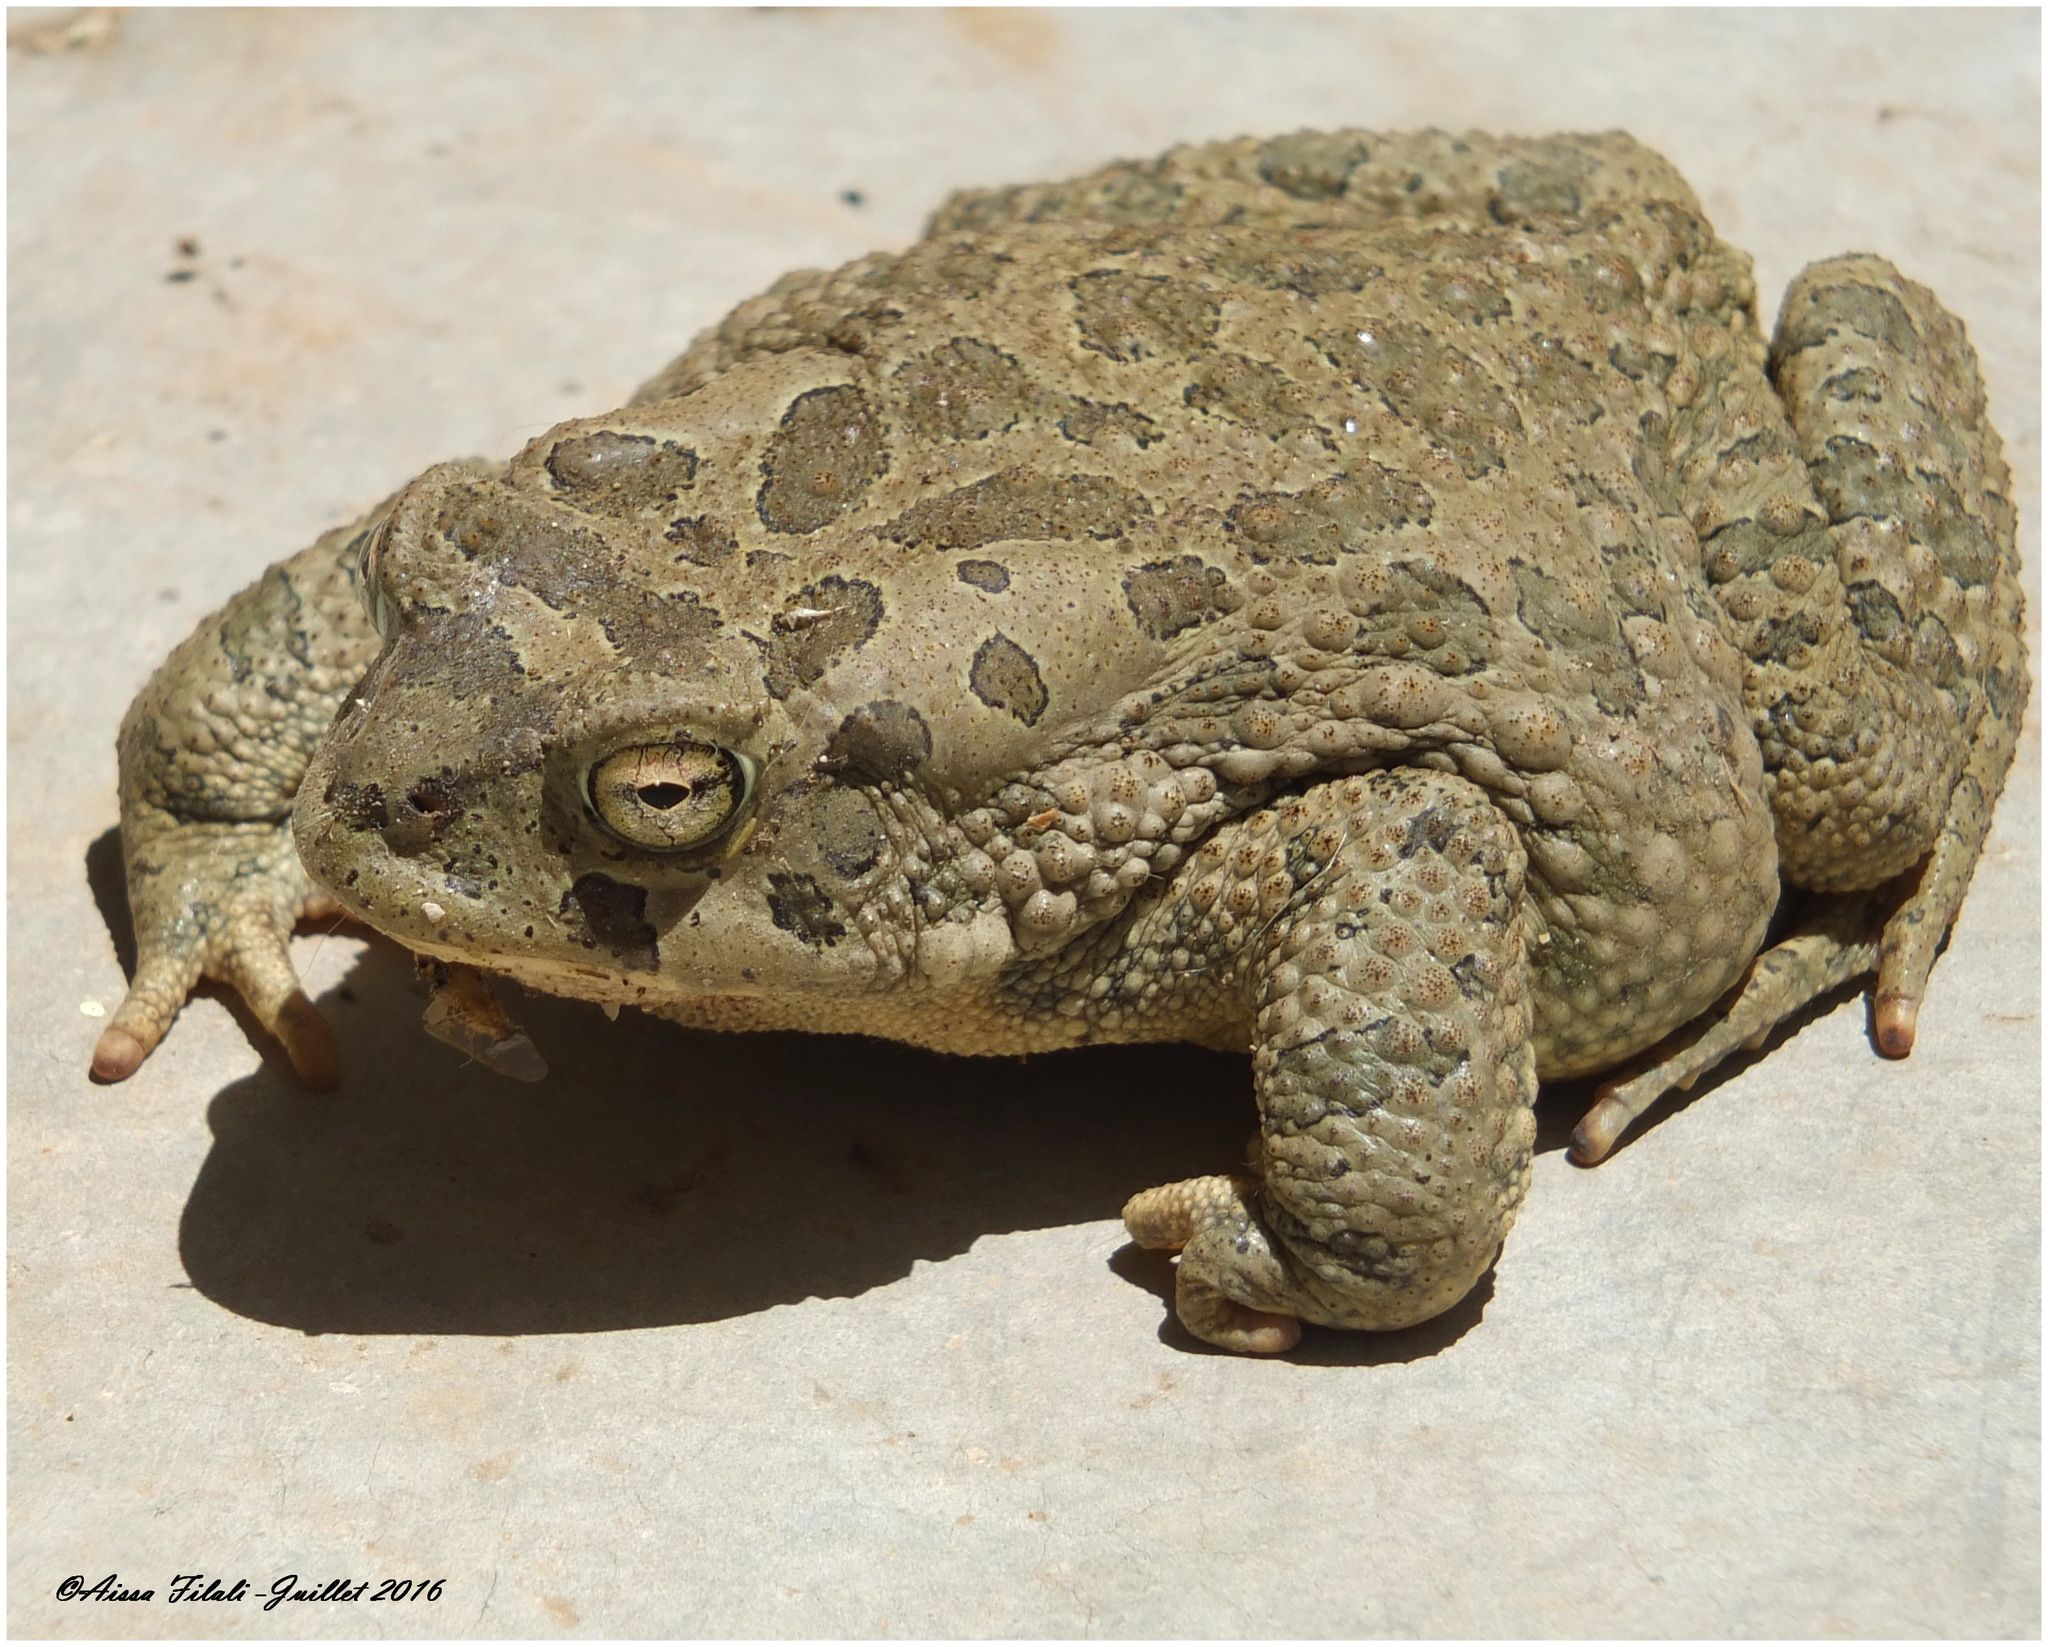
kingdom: Animalia
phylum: Chordata
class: Amphibia
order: Anura
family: Bufonidae
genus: Sclerophrys
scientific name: Sclerophrys mauritanica
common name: Berber toad
